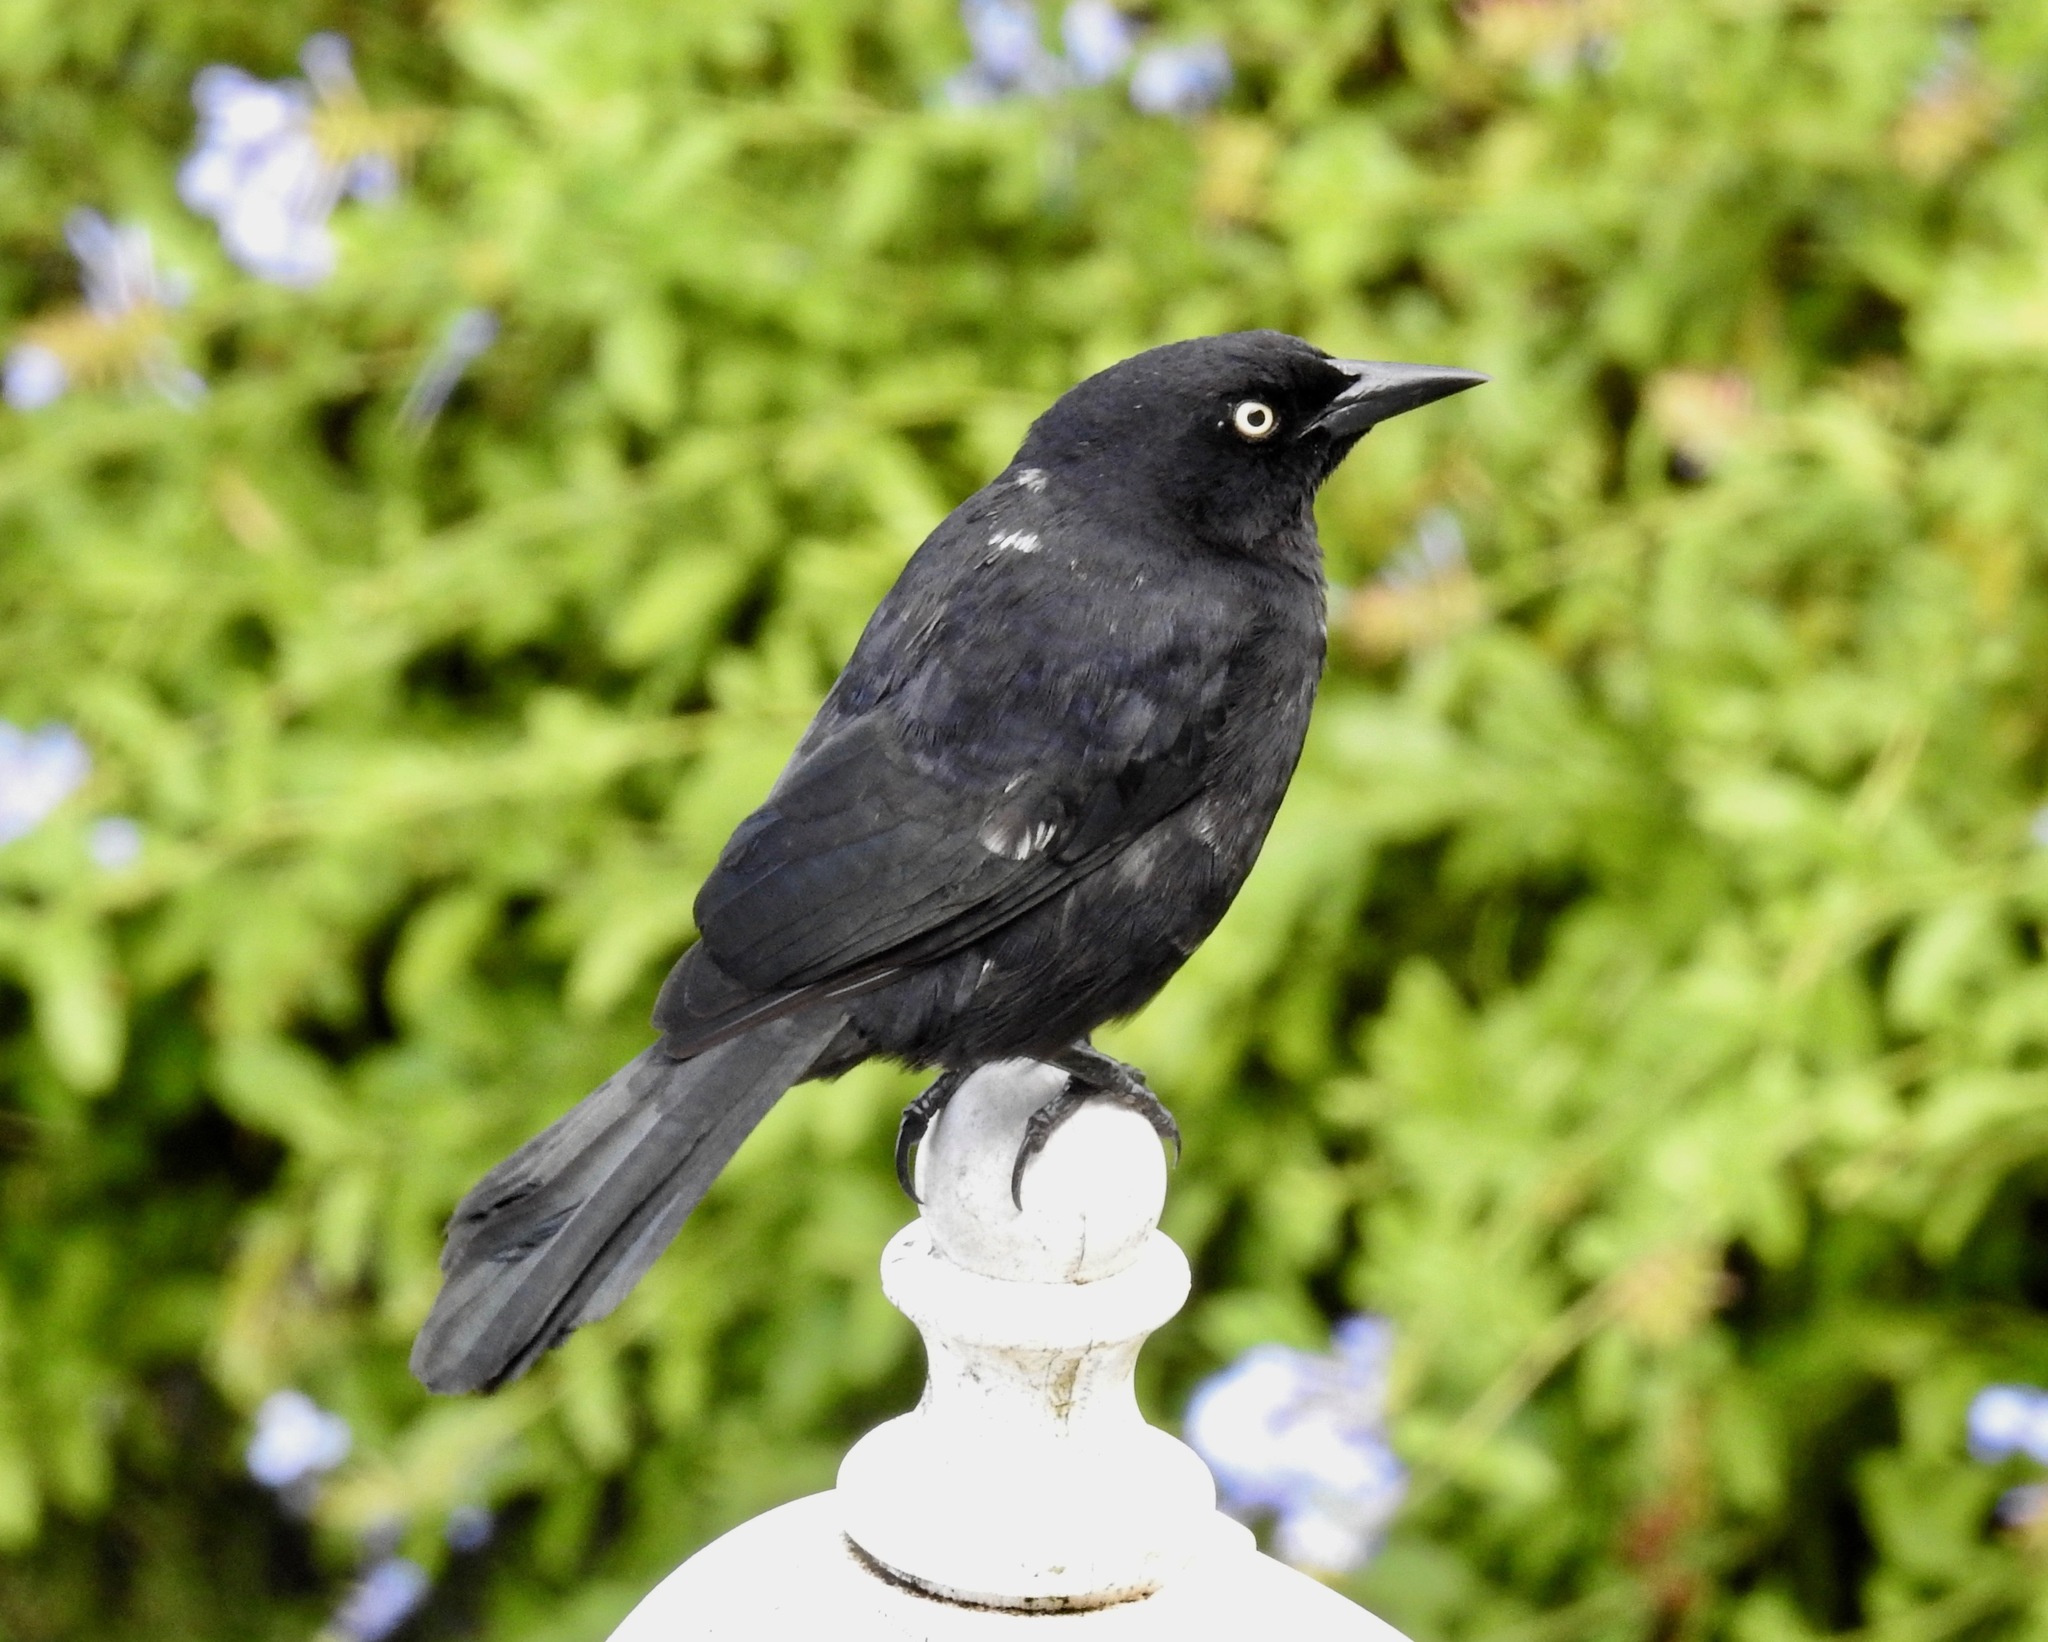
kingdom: Animalia
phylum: Chordata
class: Aves
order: Passeriformes
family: Icteridae
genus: Quiscalus
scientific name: Quiscalus lugubris
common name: Carib grackle
